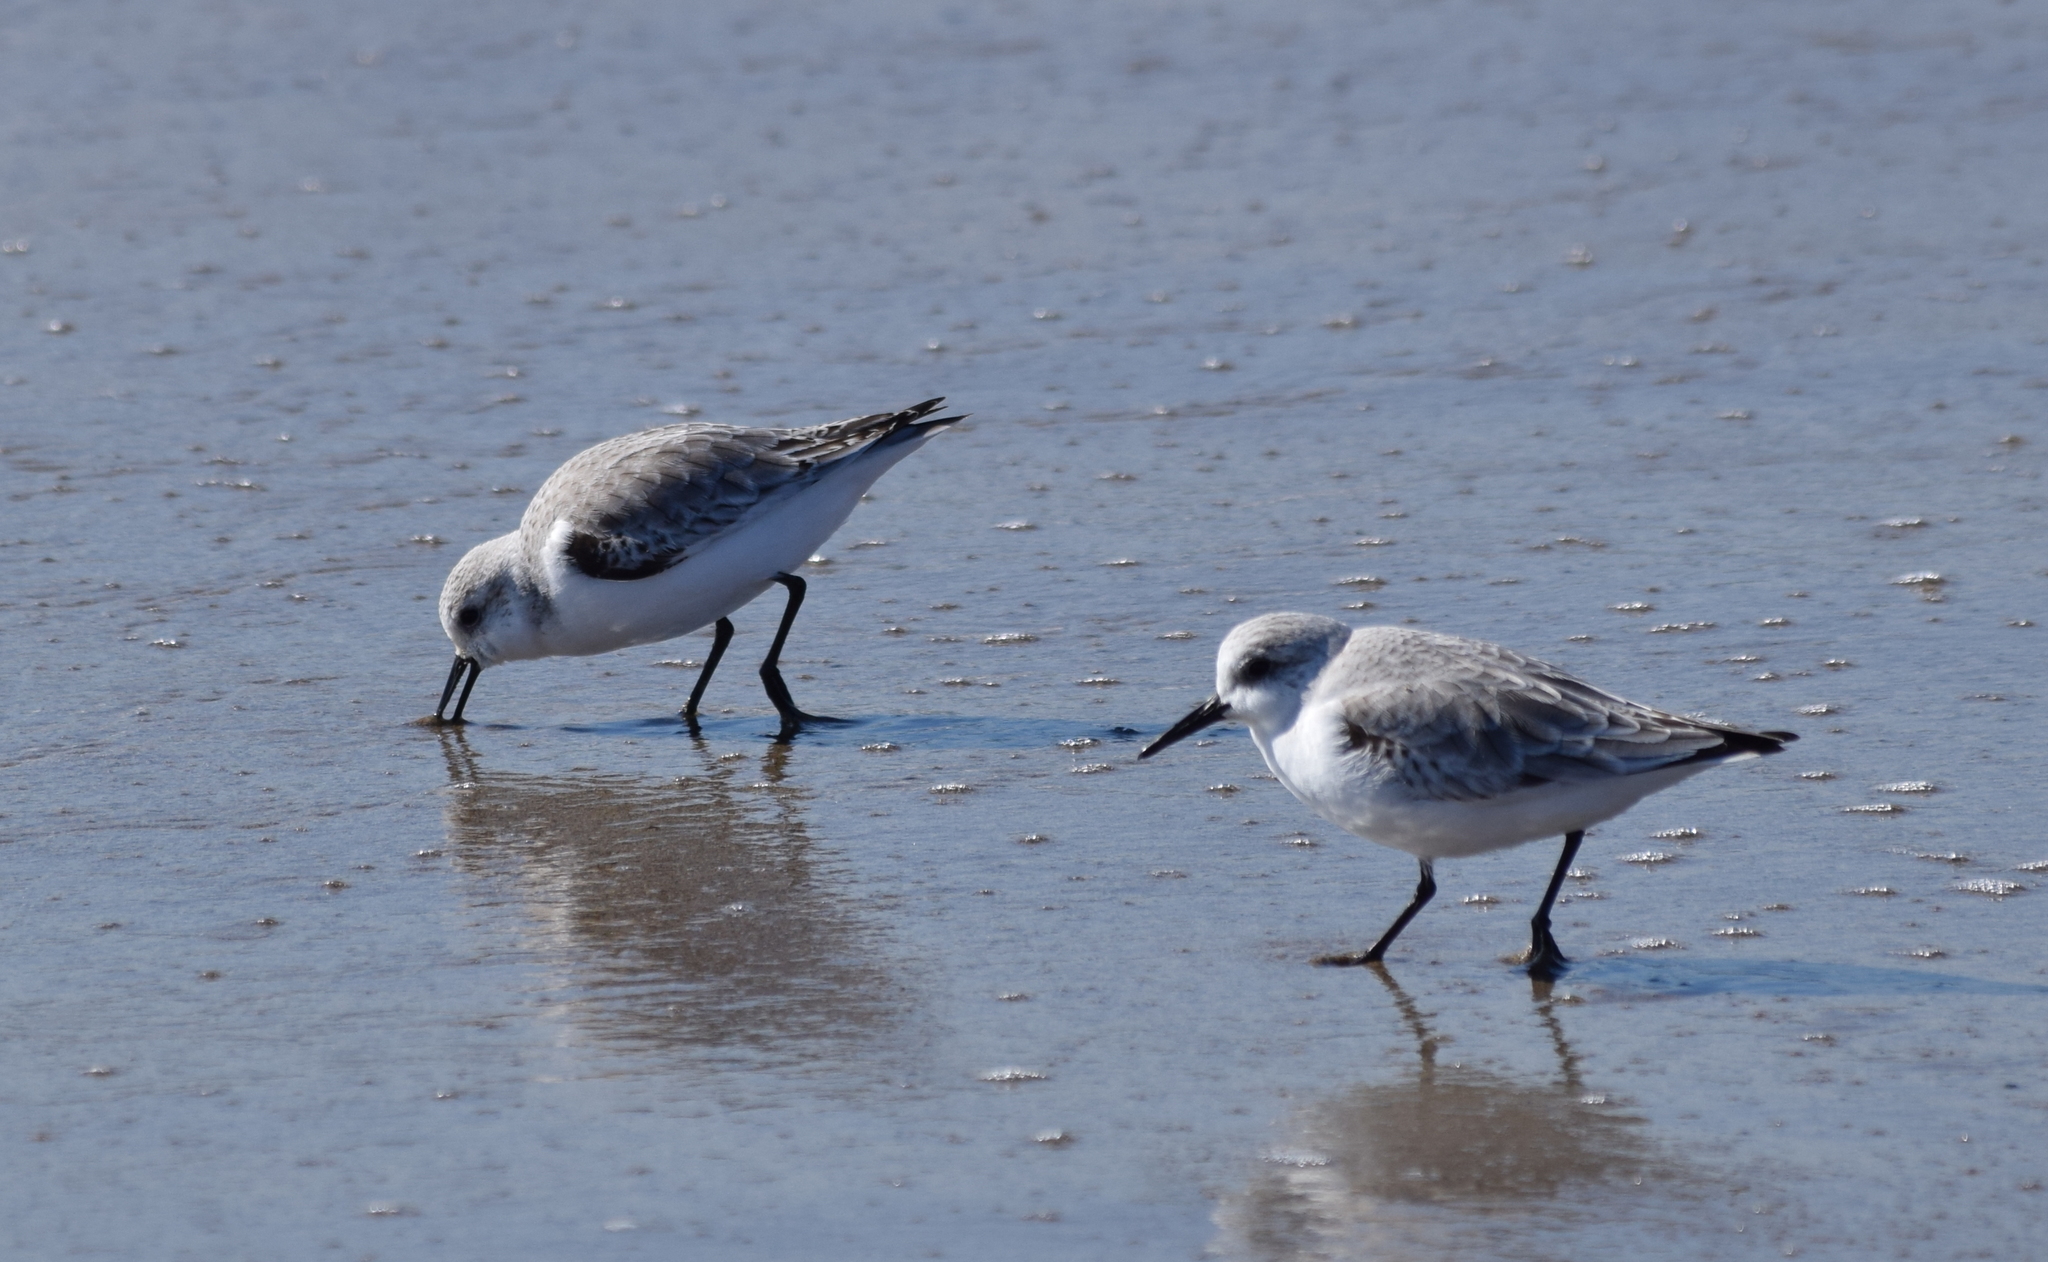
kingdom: Animalia
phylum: Chordata
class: Aves
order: Charadriiformes
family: Scolopacidae
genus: Calidris
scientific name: Calidris alba
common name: Sanderling
